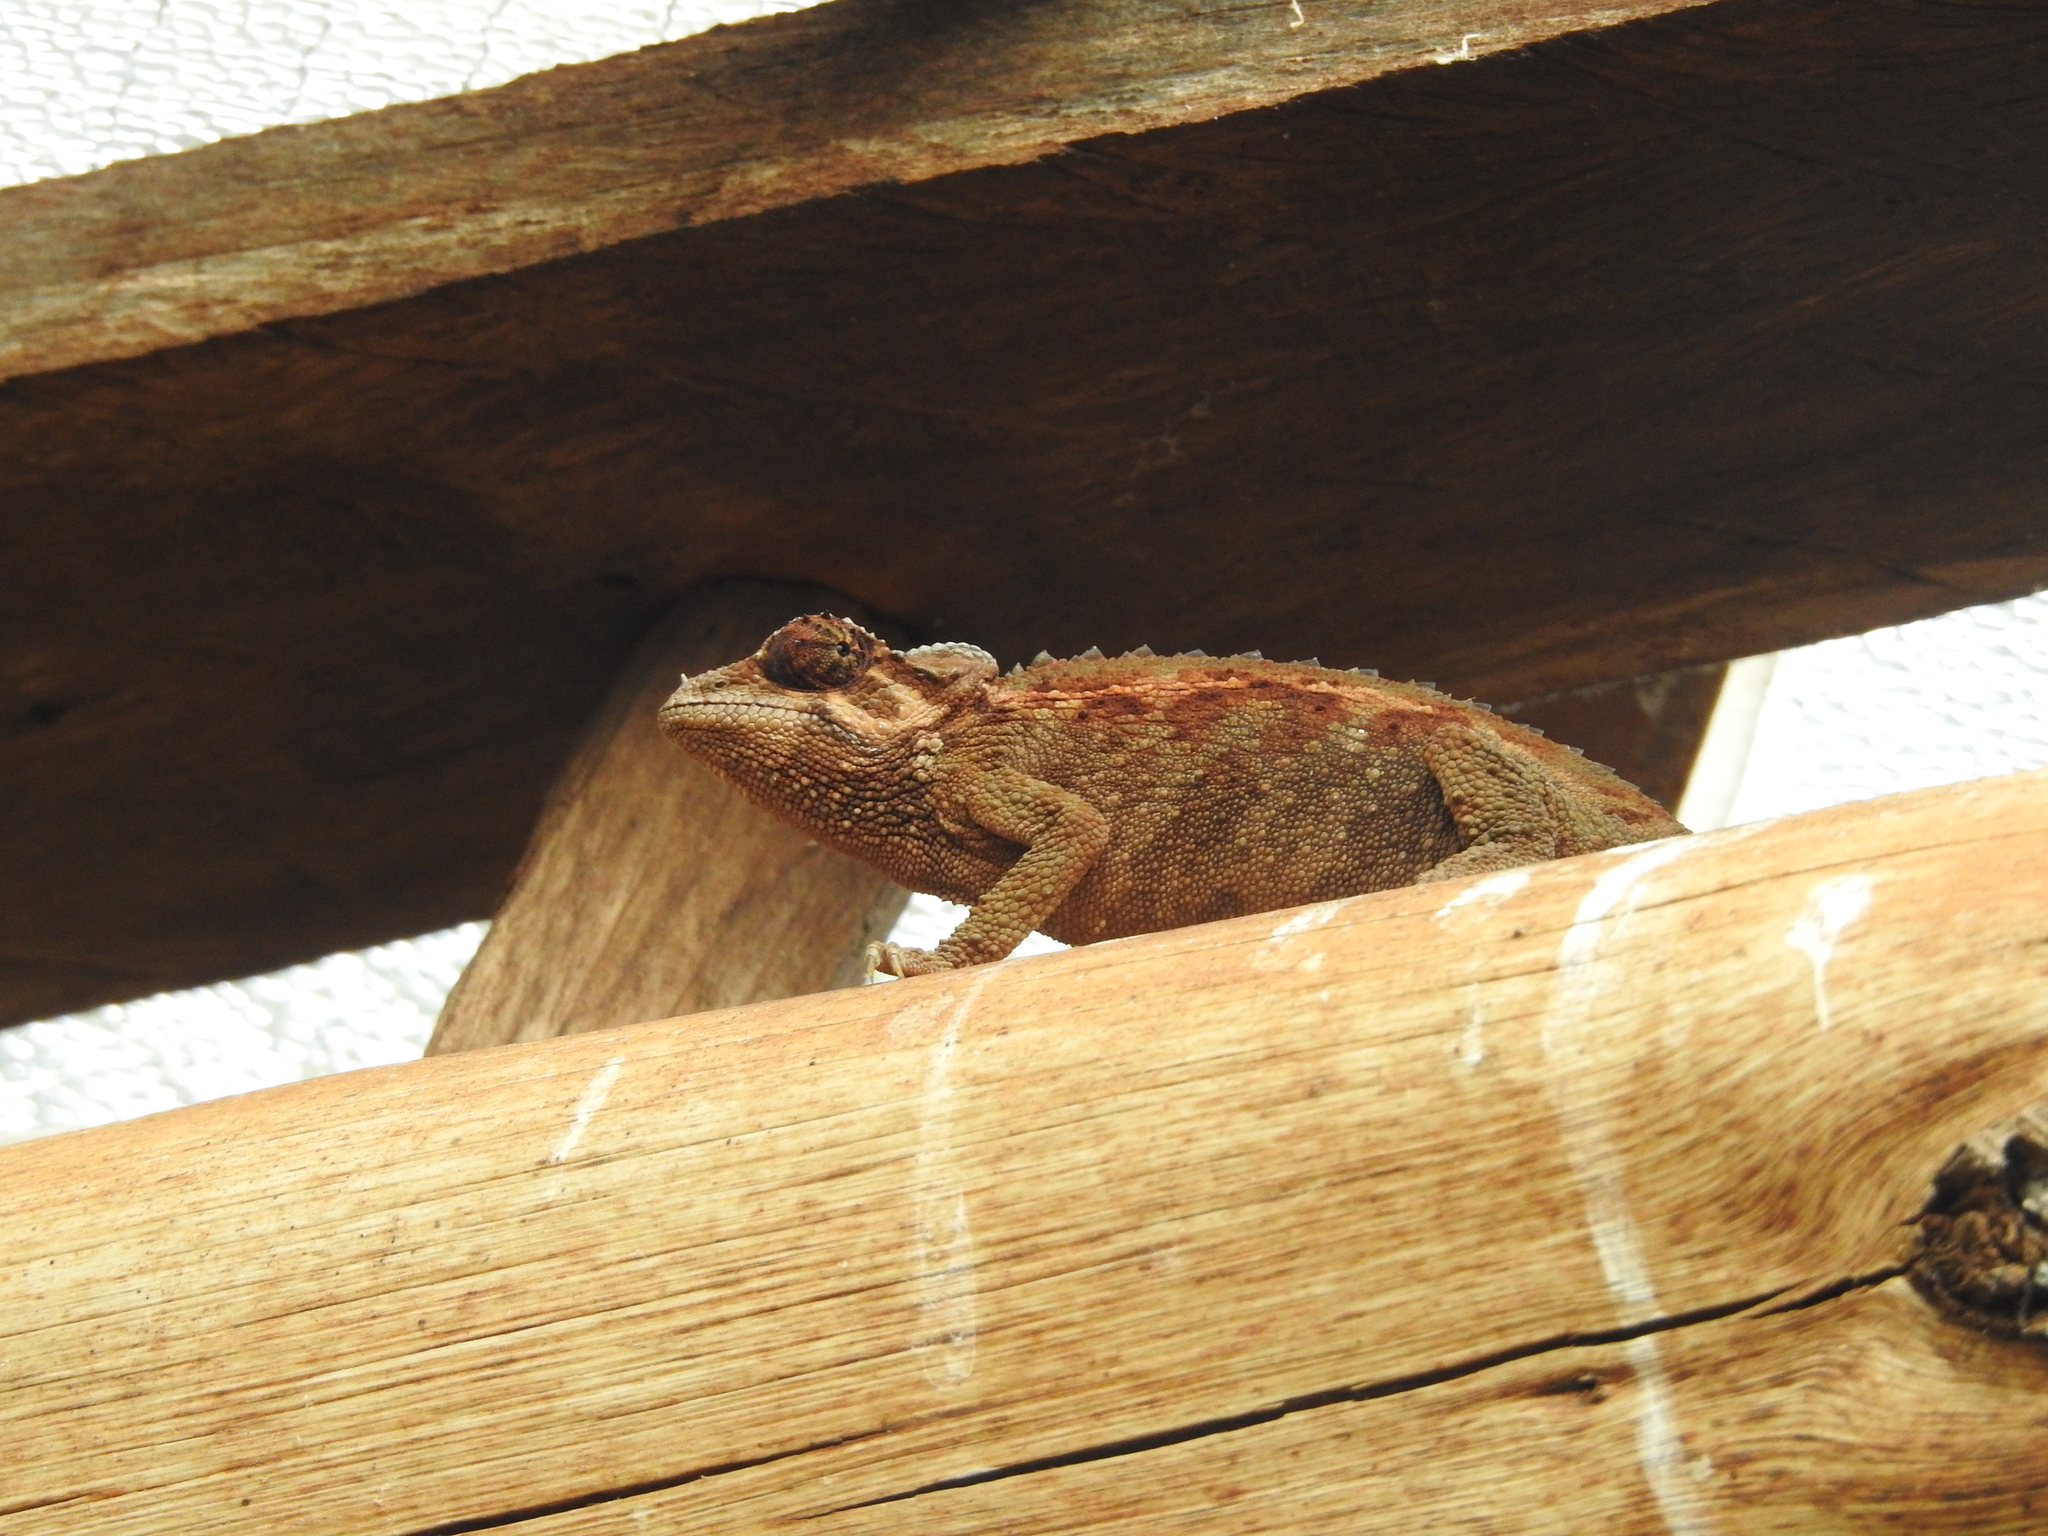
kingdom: Animalia
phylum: Chordata
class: Squamata
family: Chamaeleonidae
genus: Trioceros
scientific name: Trioceros jacksonii
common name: Jackson's chameleon
